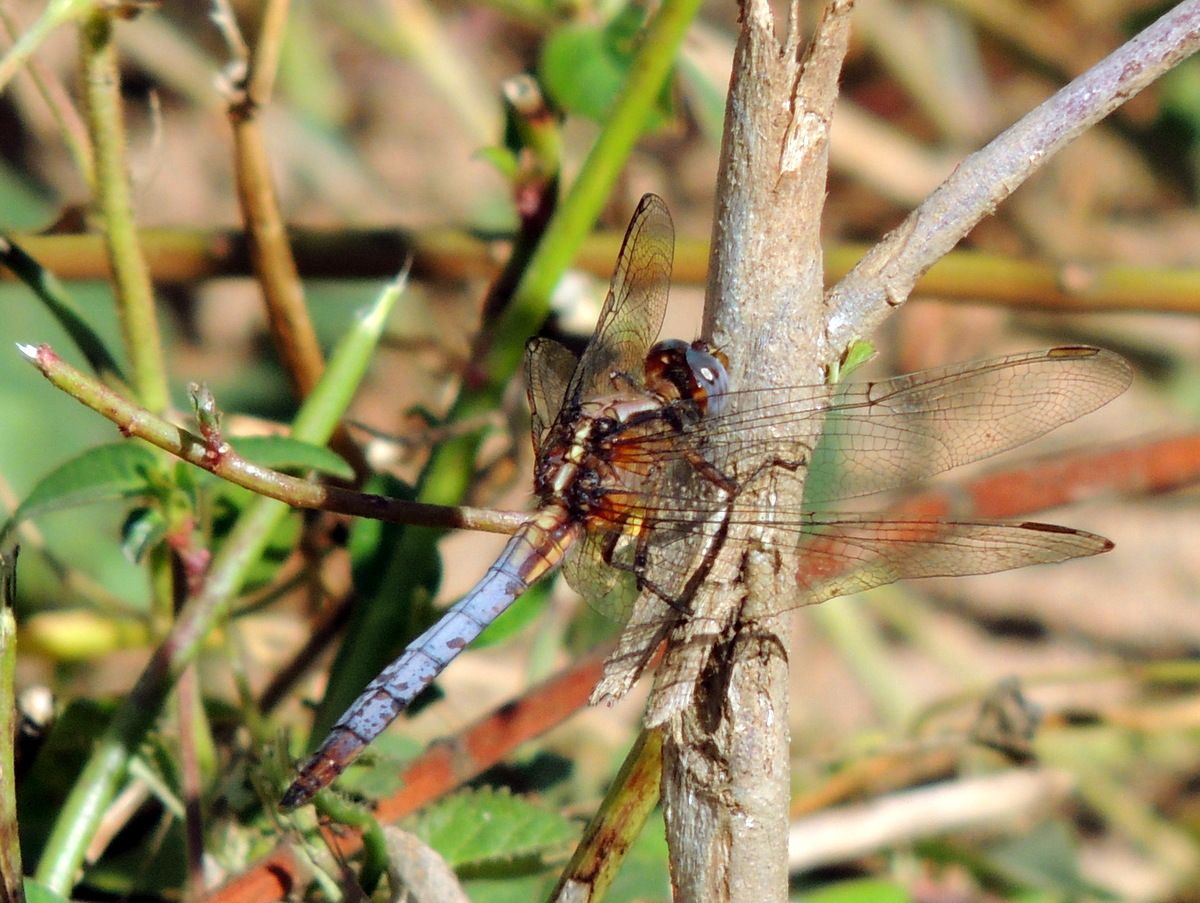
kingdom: Animalia
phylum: Arthropoda
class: Insecta
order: Odonata
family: Libellulidae
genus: Orthetrum
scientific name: Orthetrum azureum
